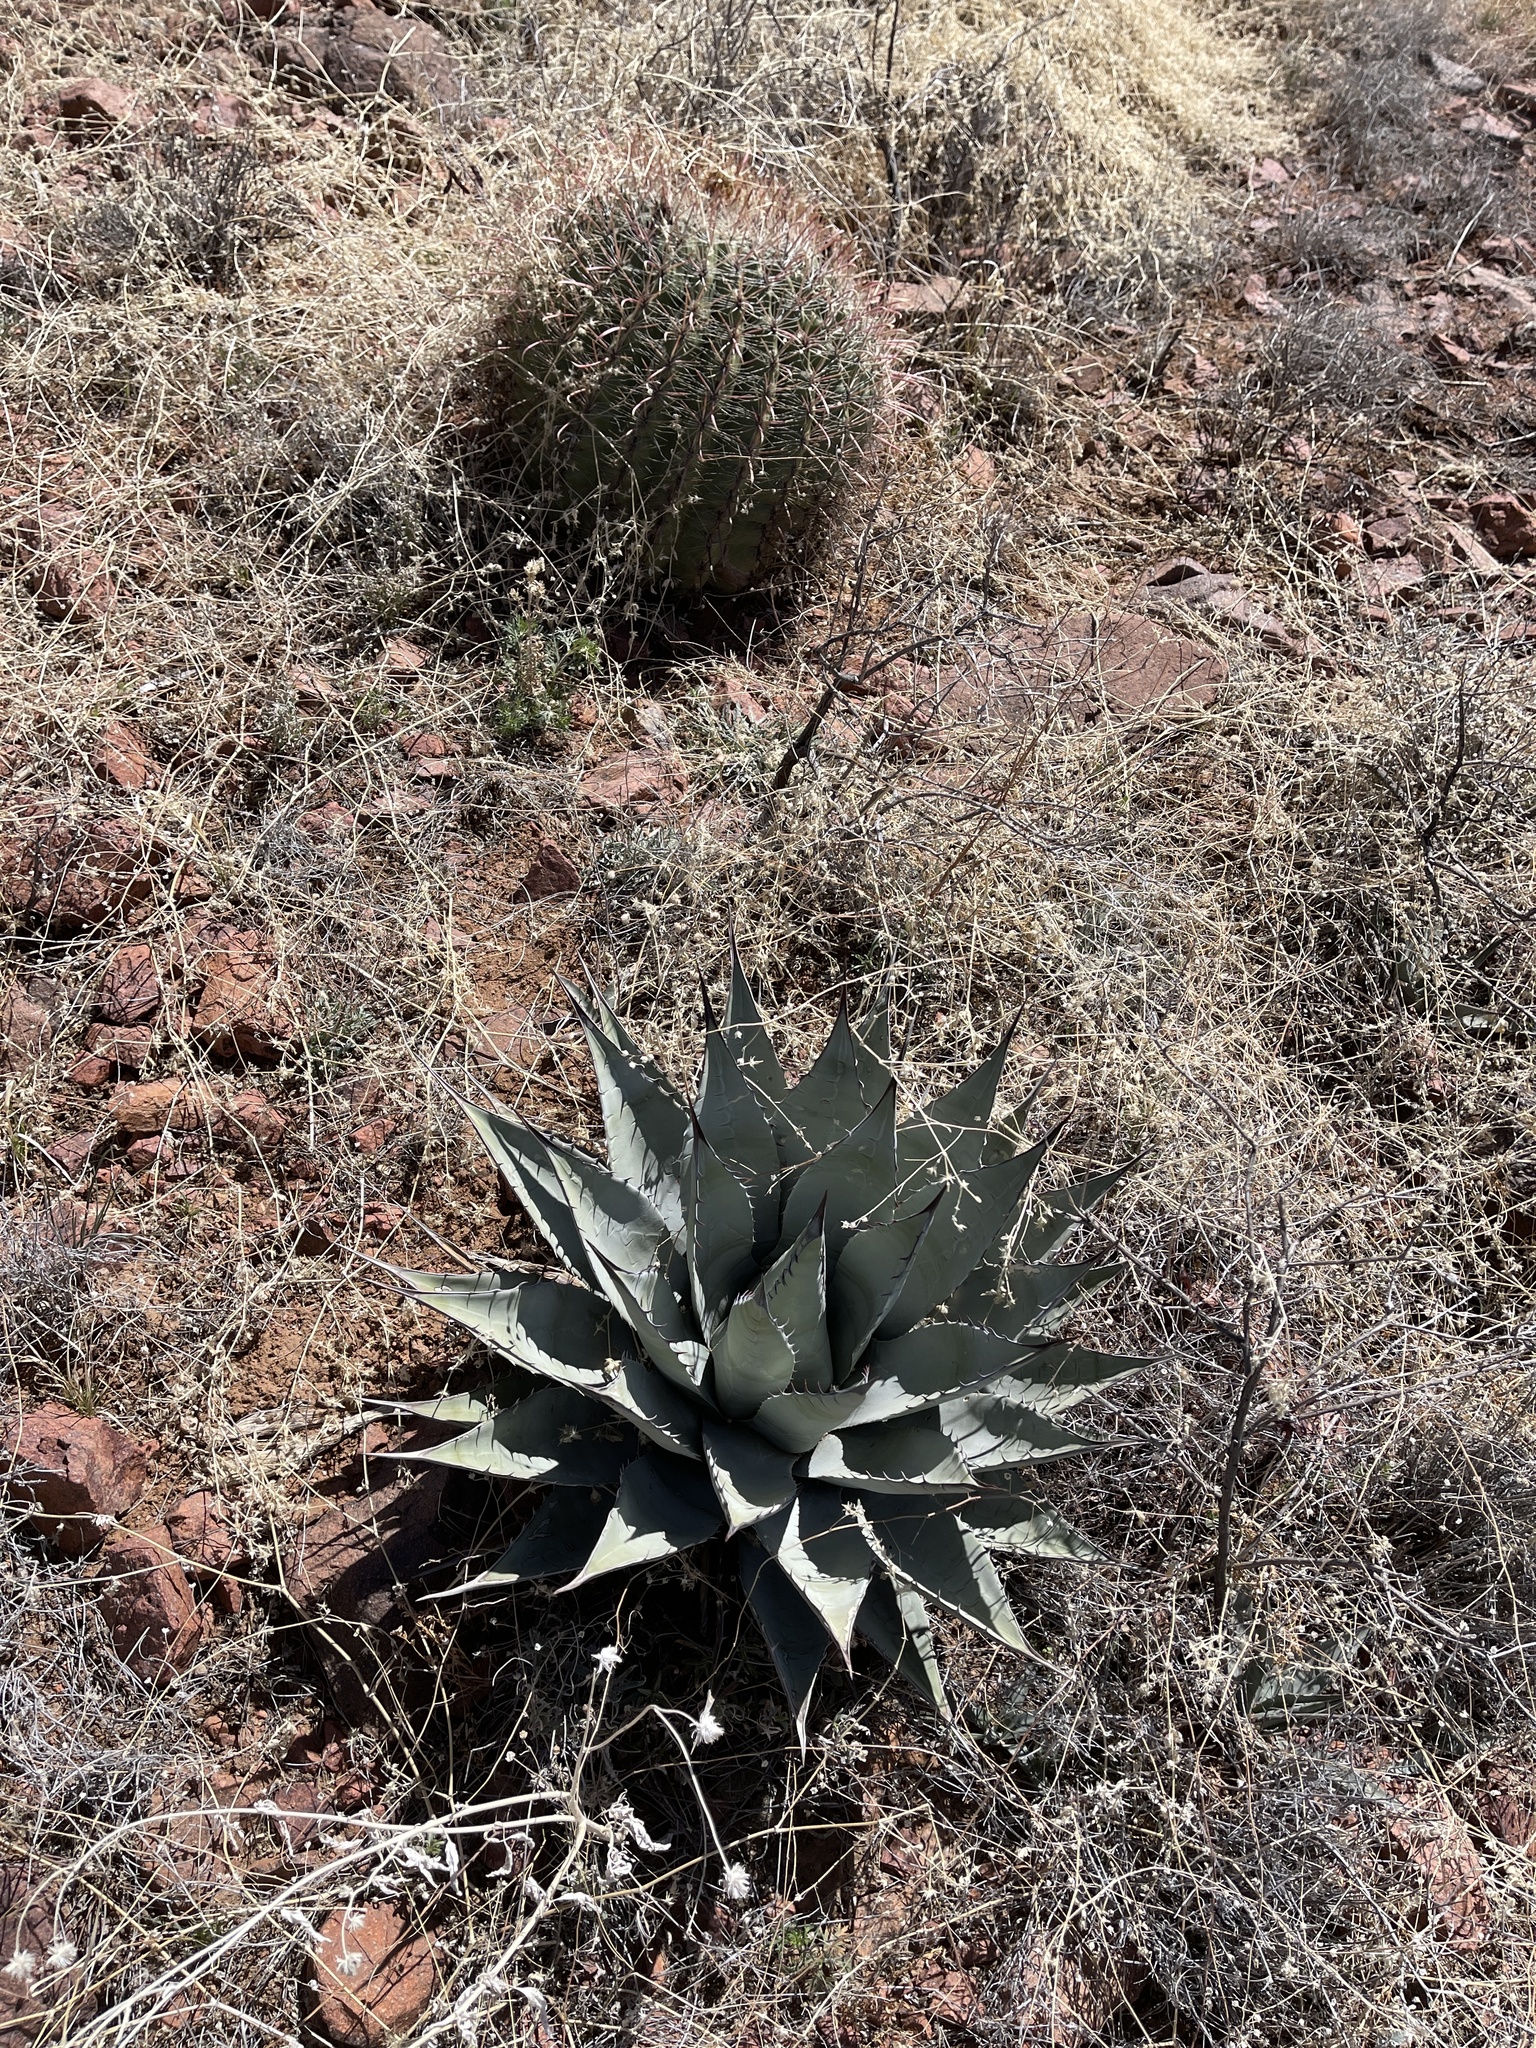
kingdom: Plantae
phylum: Tracheophyta
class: Liliopsida
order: Asparagales
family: Asparagaceae
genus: Agave
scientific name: Agave parryi
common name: Parry's agave
